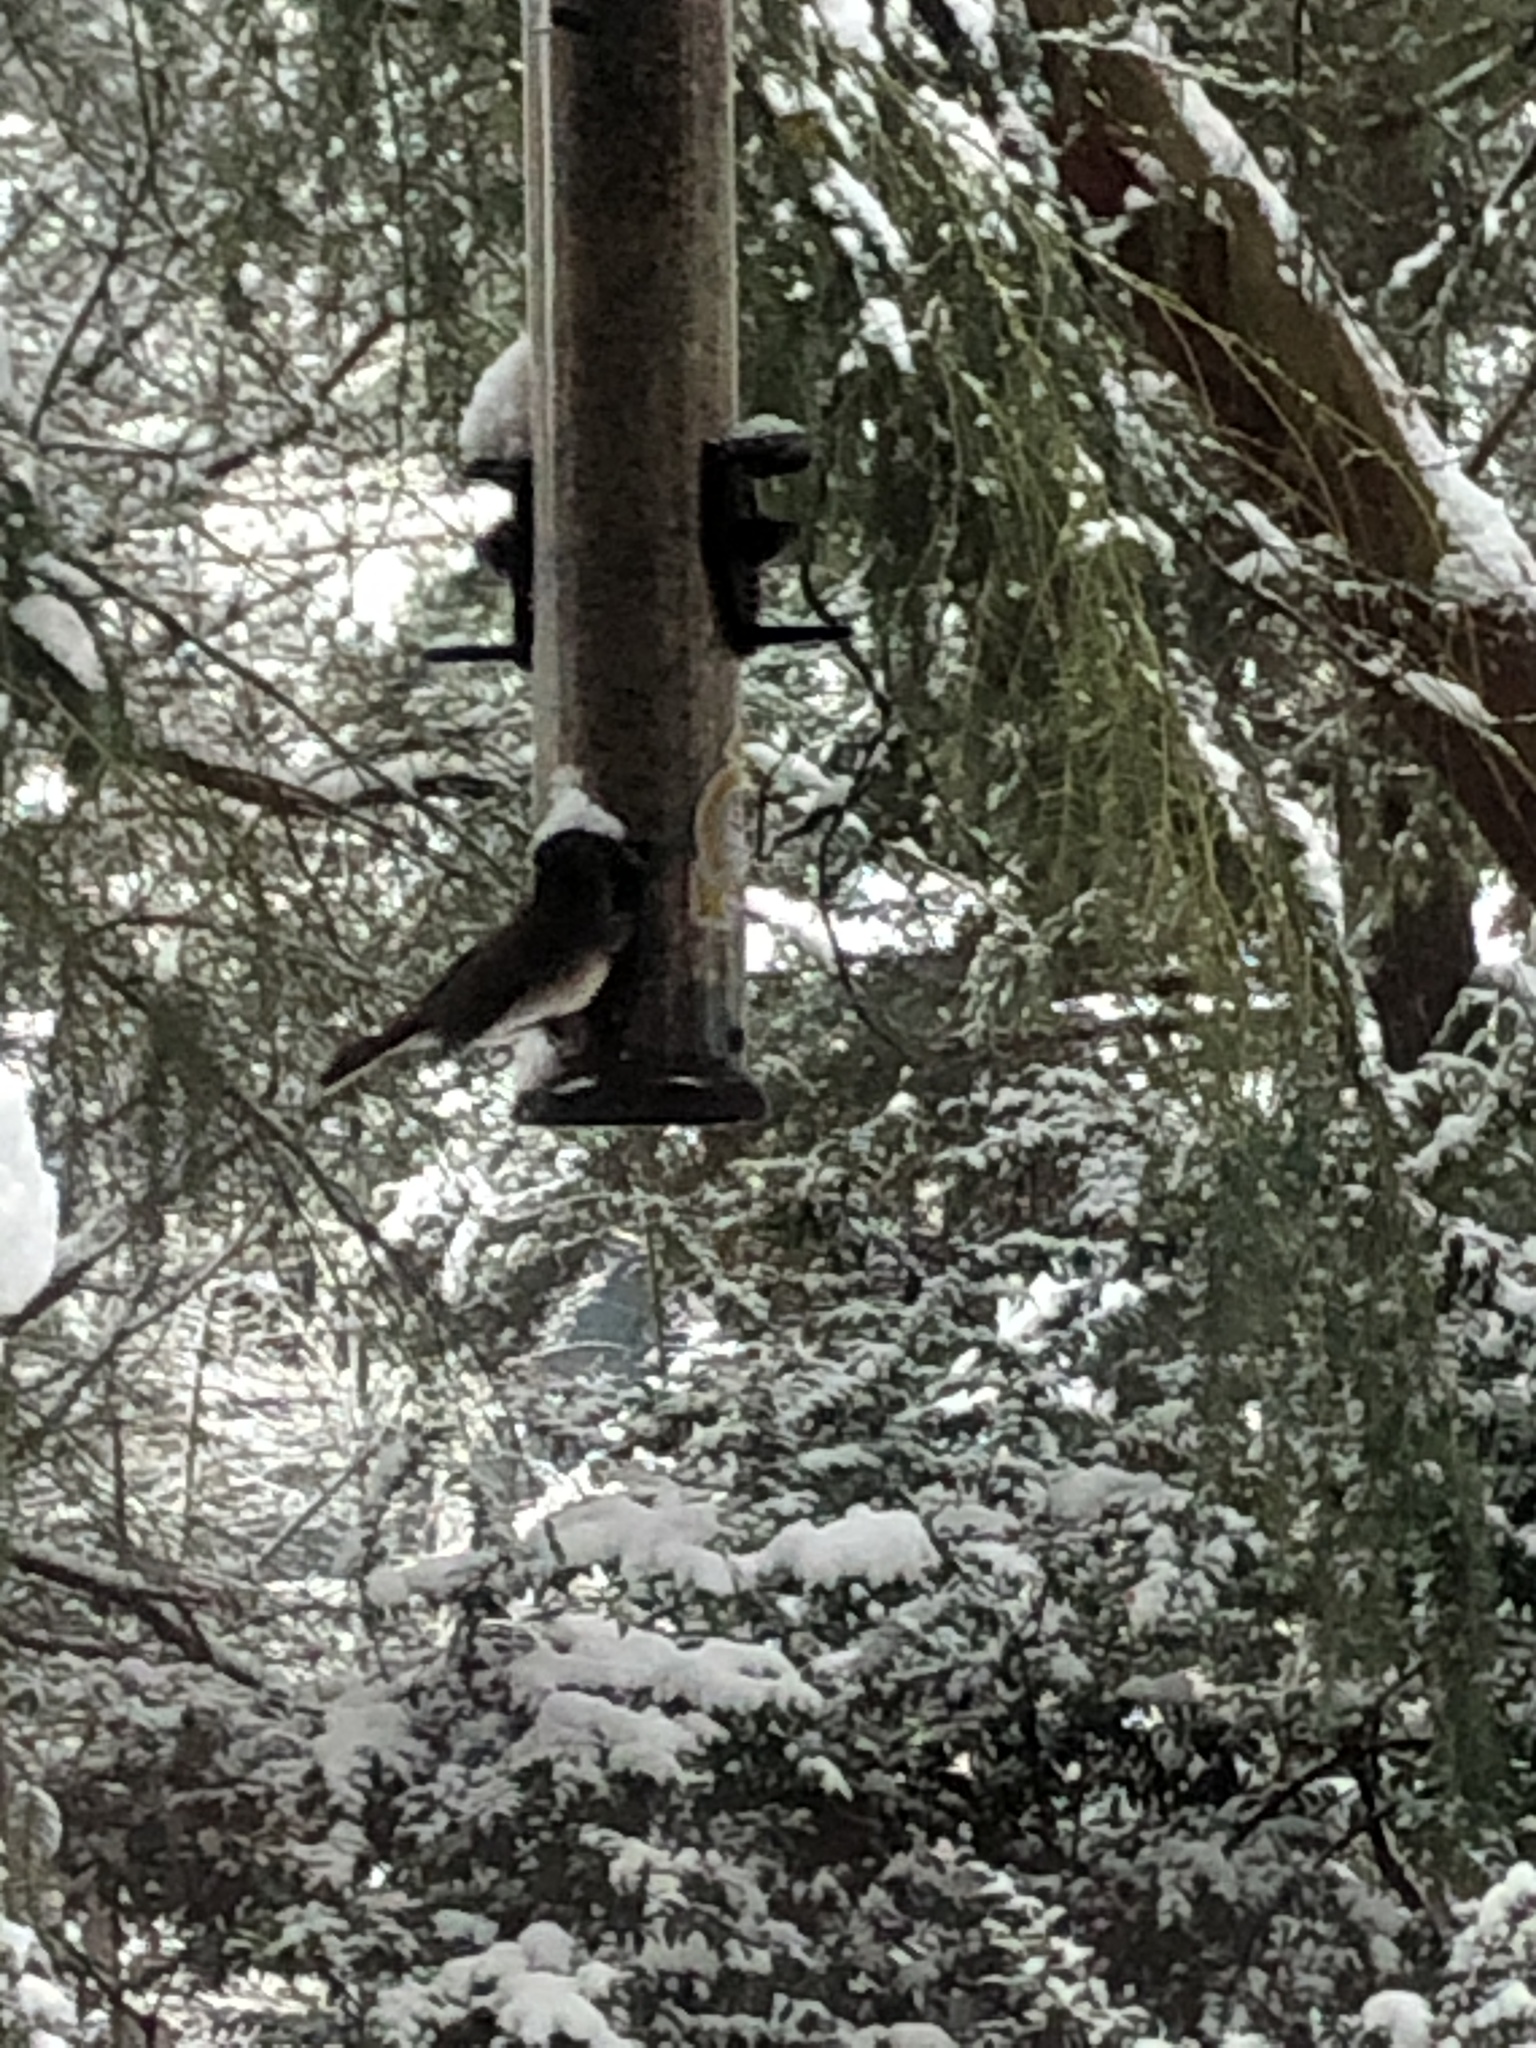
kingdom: Animalia
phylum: Chordata
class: Aves
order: Passeriformes
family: Passerellidae
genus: Junco
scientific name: Junco hyemalis
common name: Dark-eyed junco
